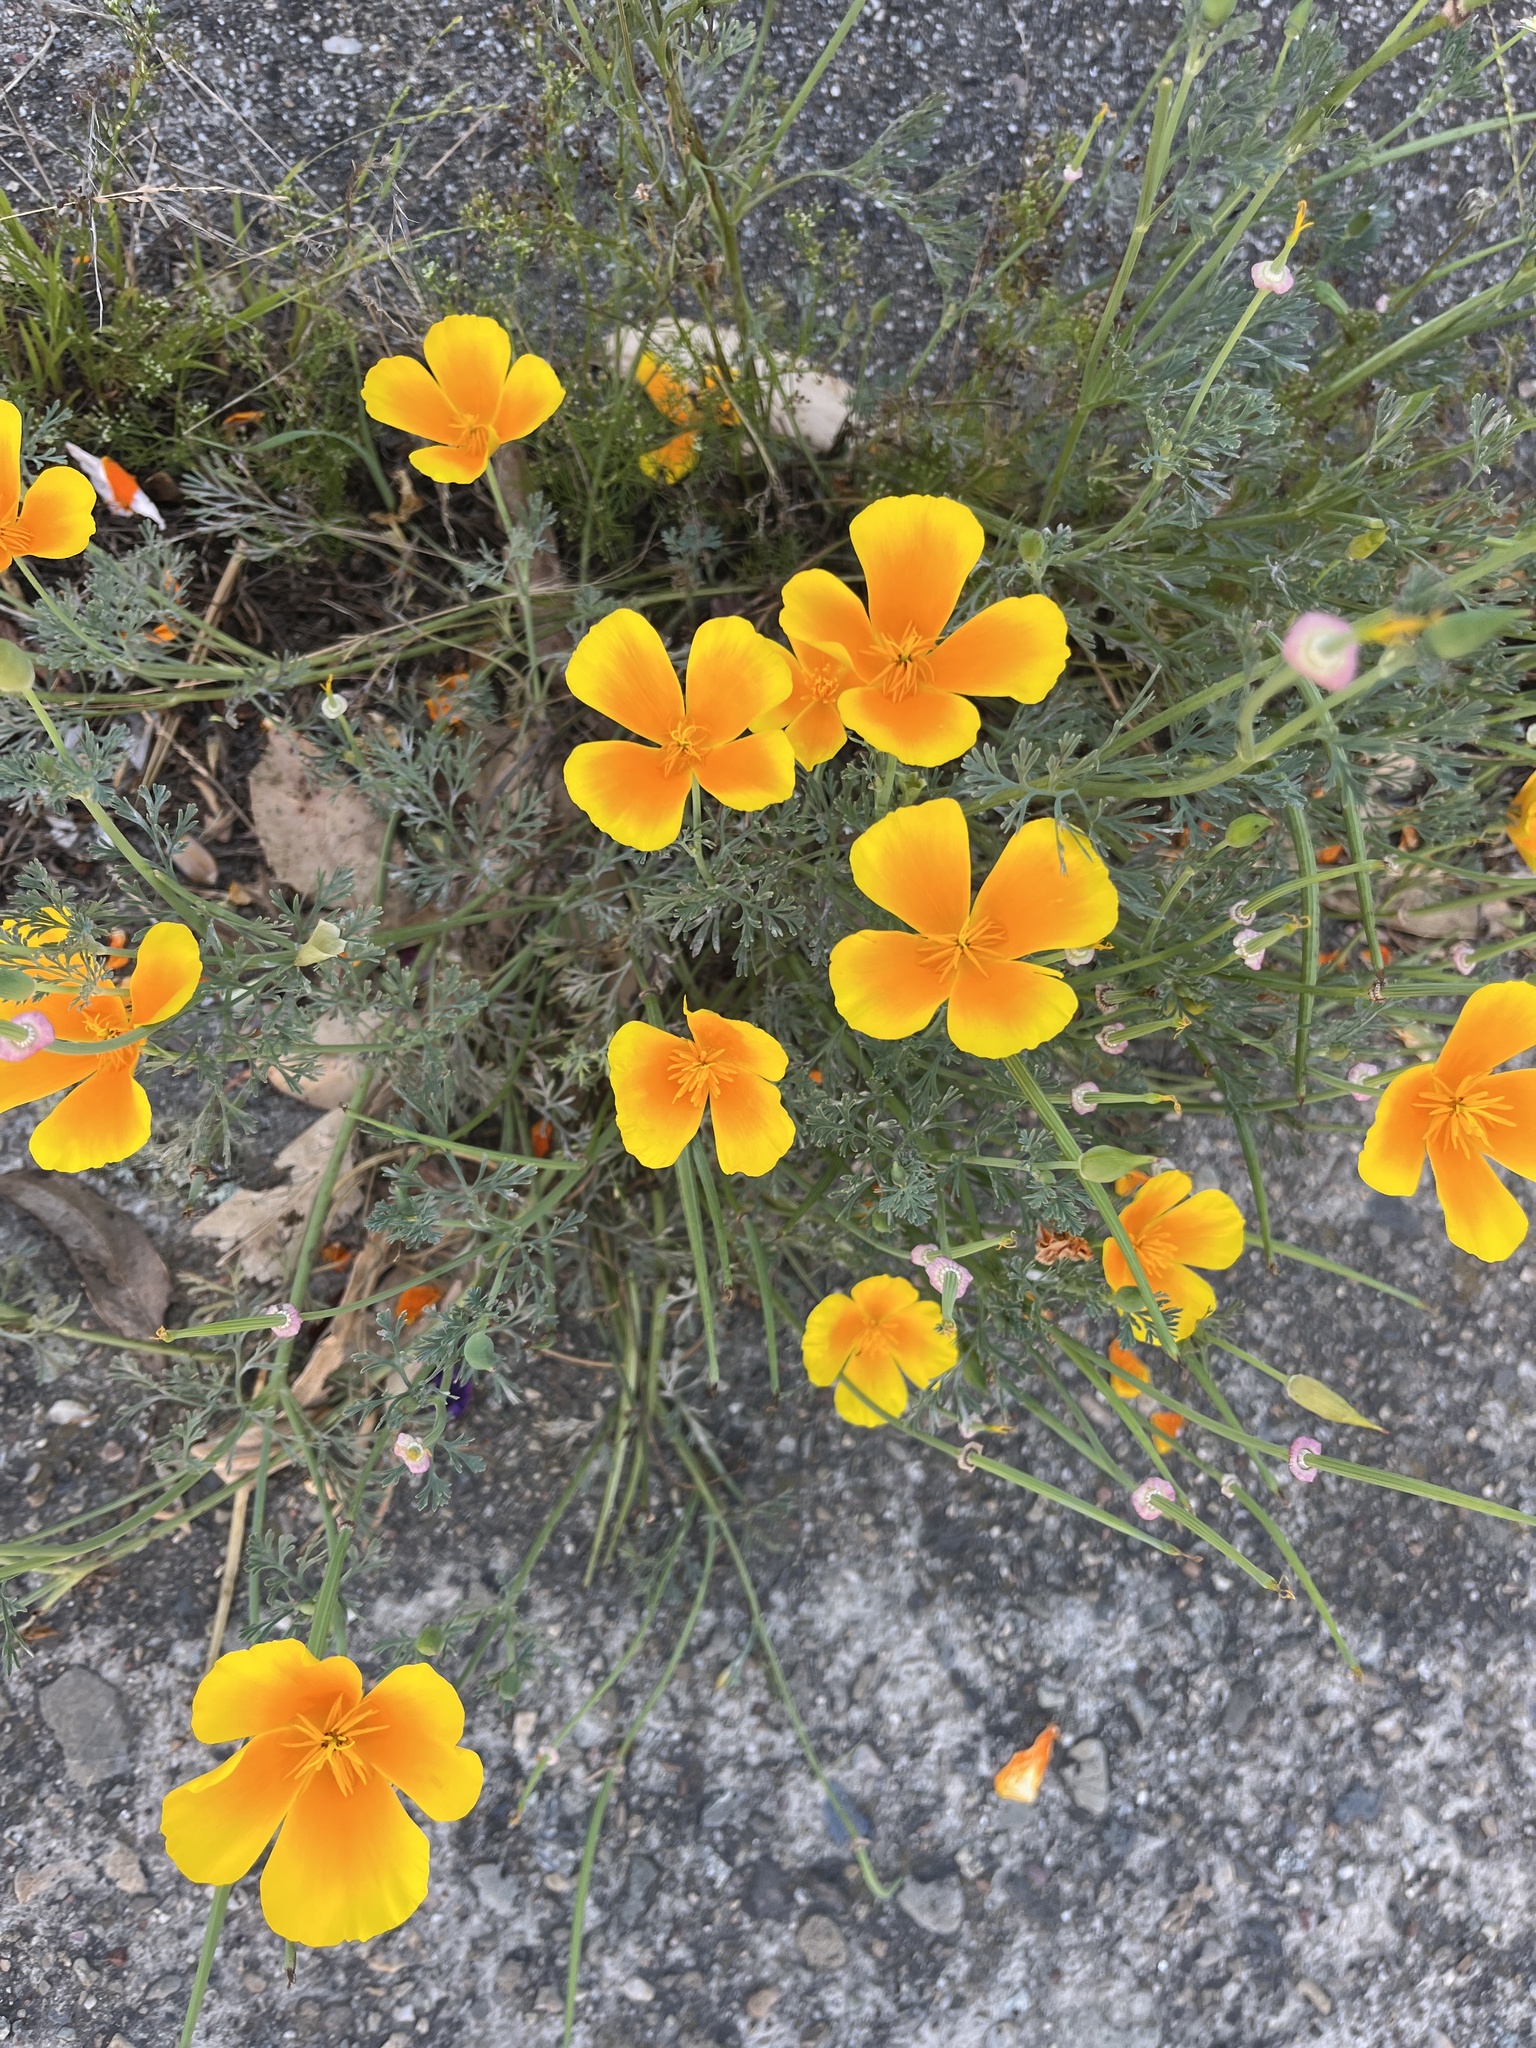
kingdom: Plantae
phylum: Tracheophyta
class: Magnoliopsida
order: Ranunculales
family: Papaveraceae
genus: Eschscholzia
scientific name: Eschscholzia californica
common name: California poppy
